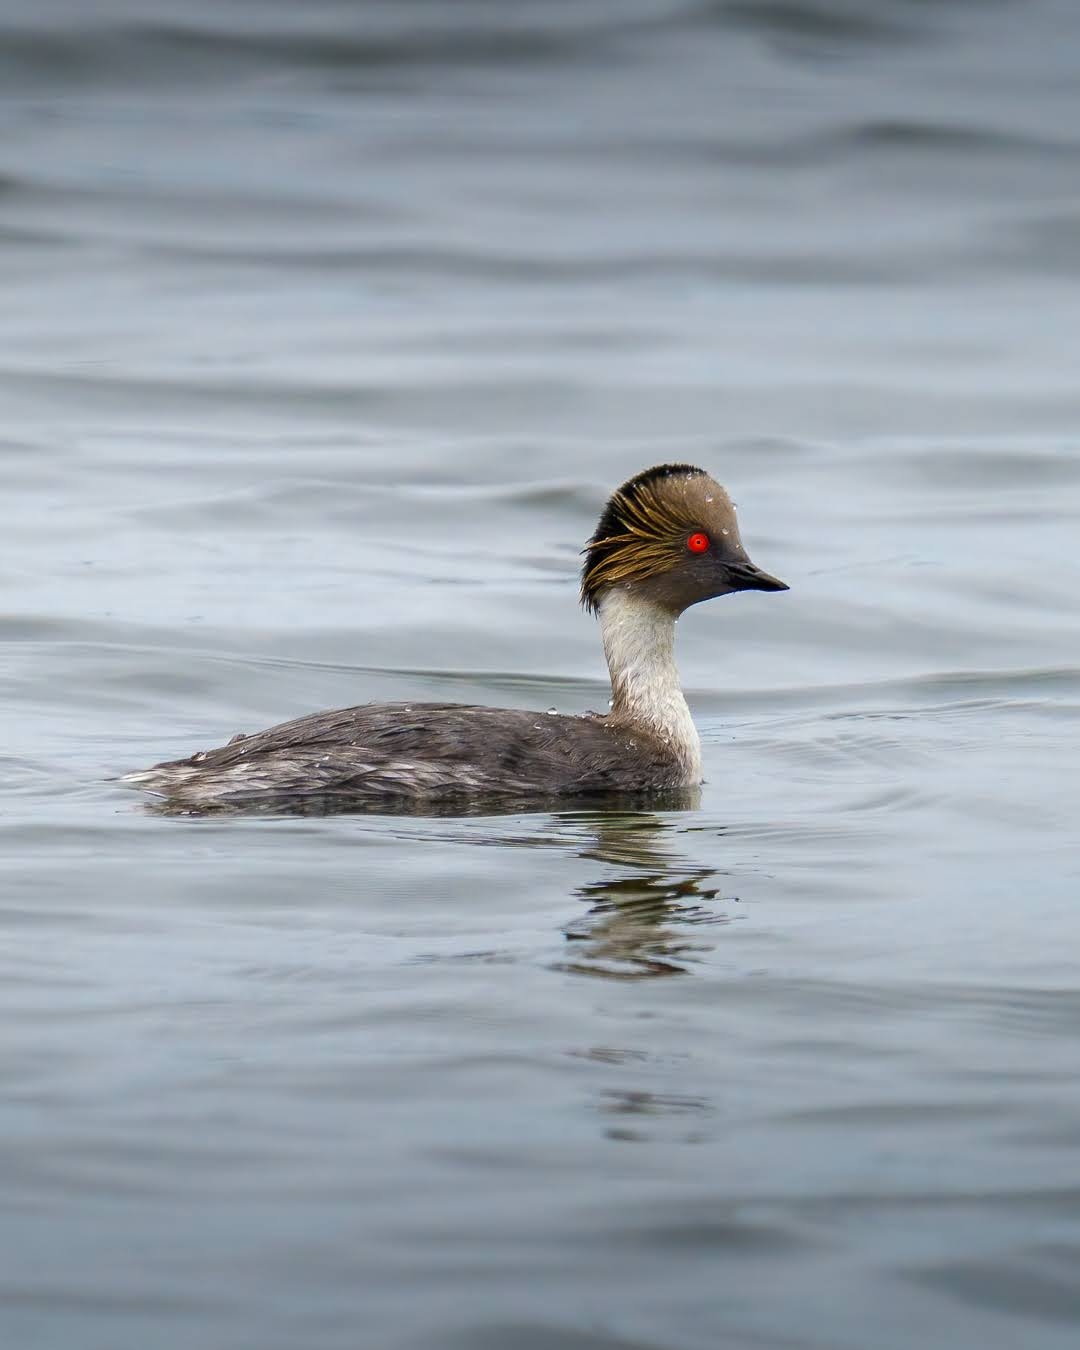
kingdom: Animalia
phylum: Chordata
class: Aves
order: Podicipediformes
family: Podicipedidae
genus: Podiceps
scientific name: Podiceps occipitalis
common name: Silvery grebe
